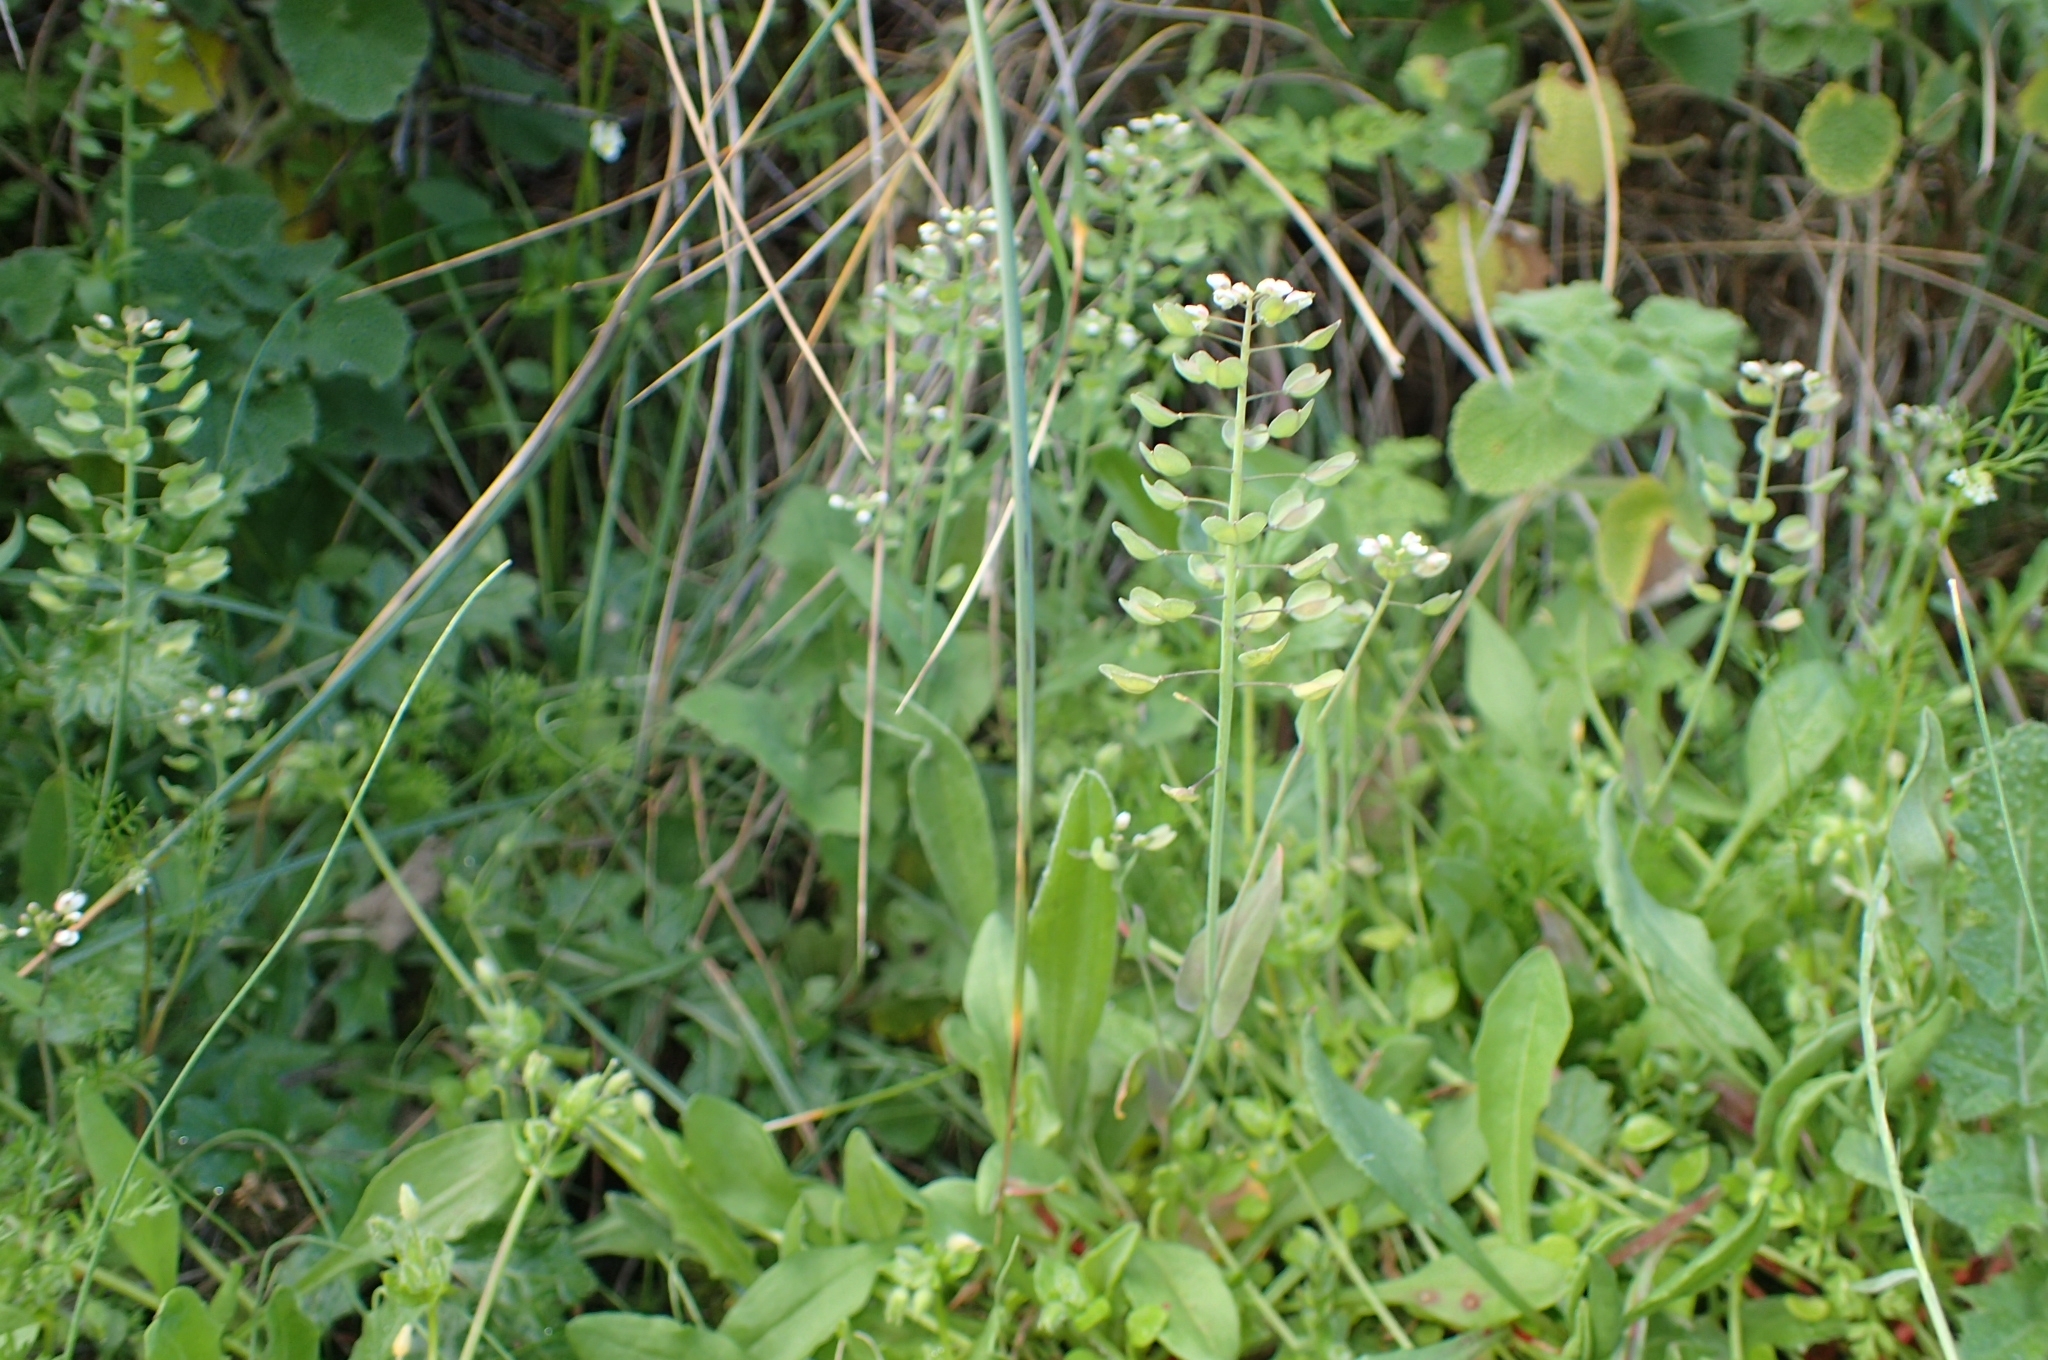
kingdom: Plantae
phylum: Tracheophyta
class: Magnoliopsida
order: Brassicales
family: Brassicaceae
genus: Noccaea
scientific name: Noccaea perfoliata
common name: Perfoliate pennycress
